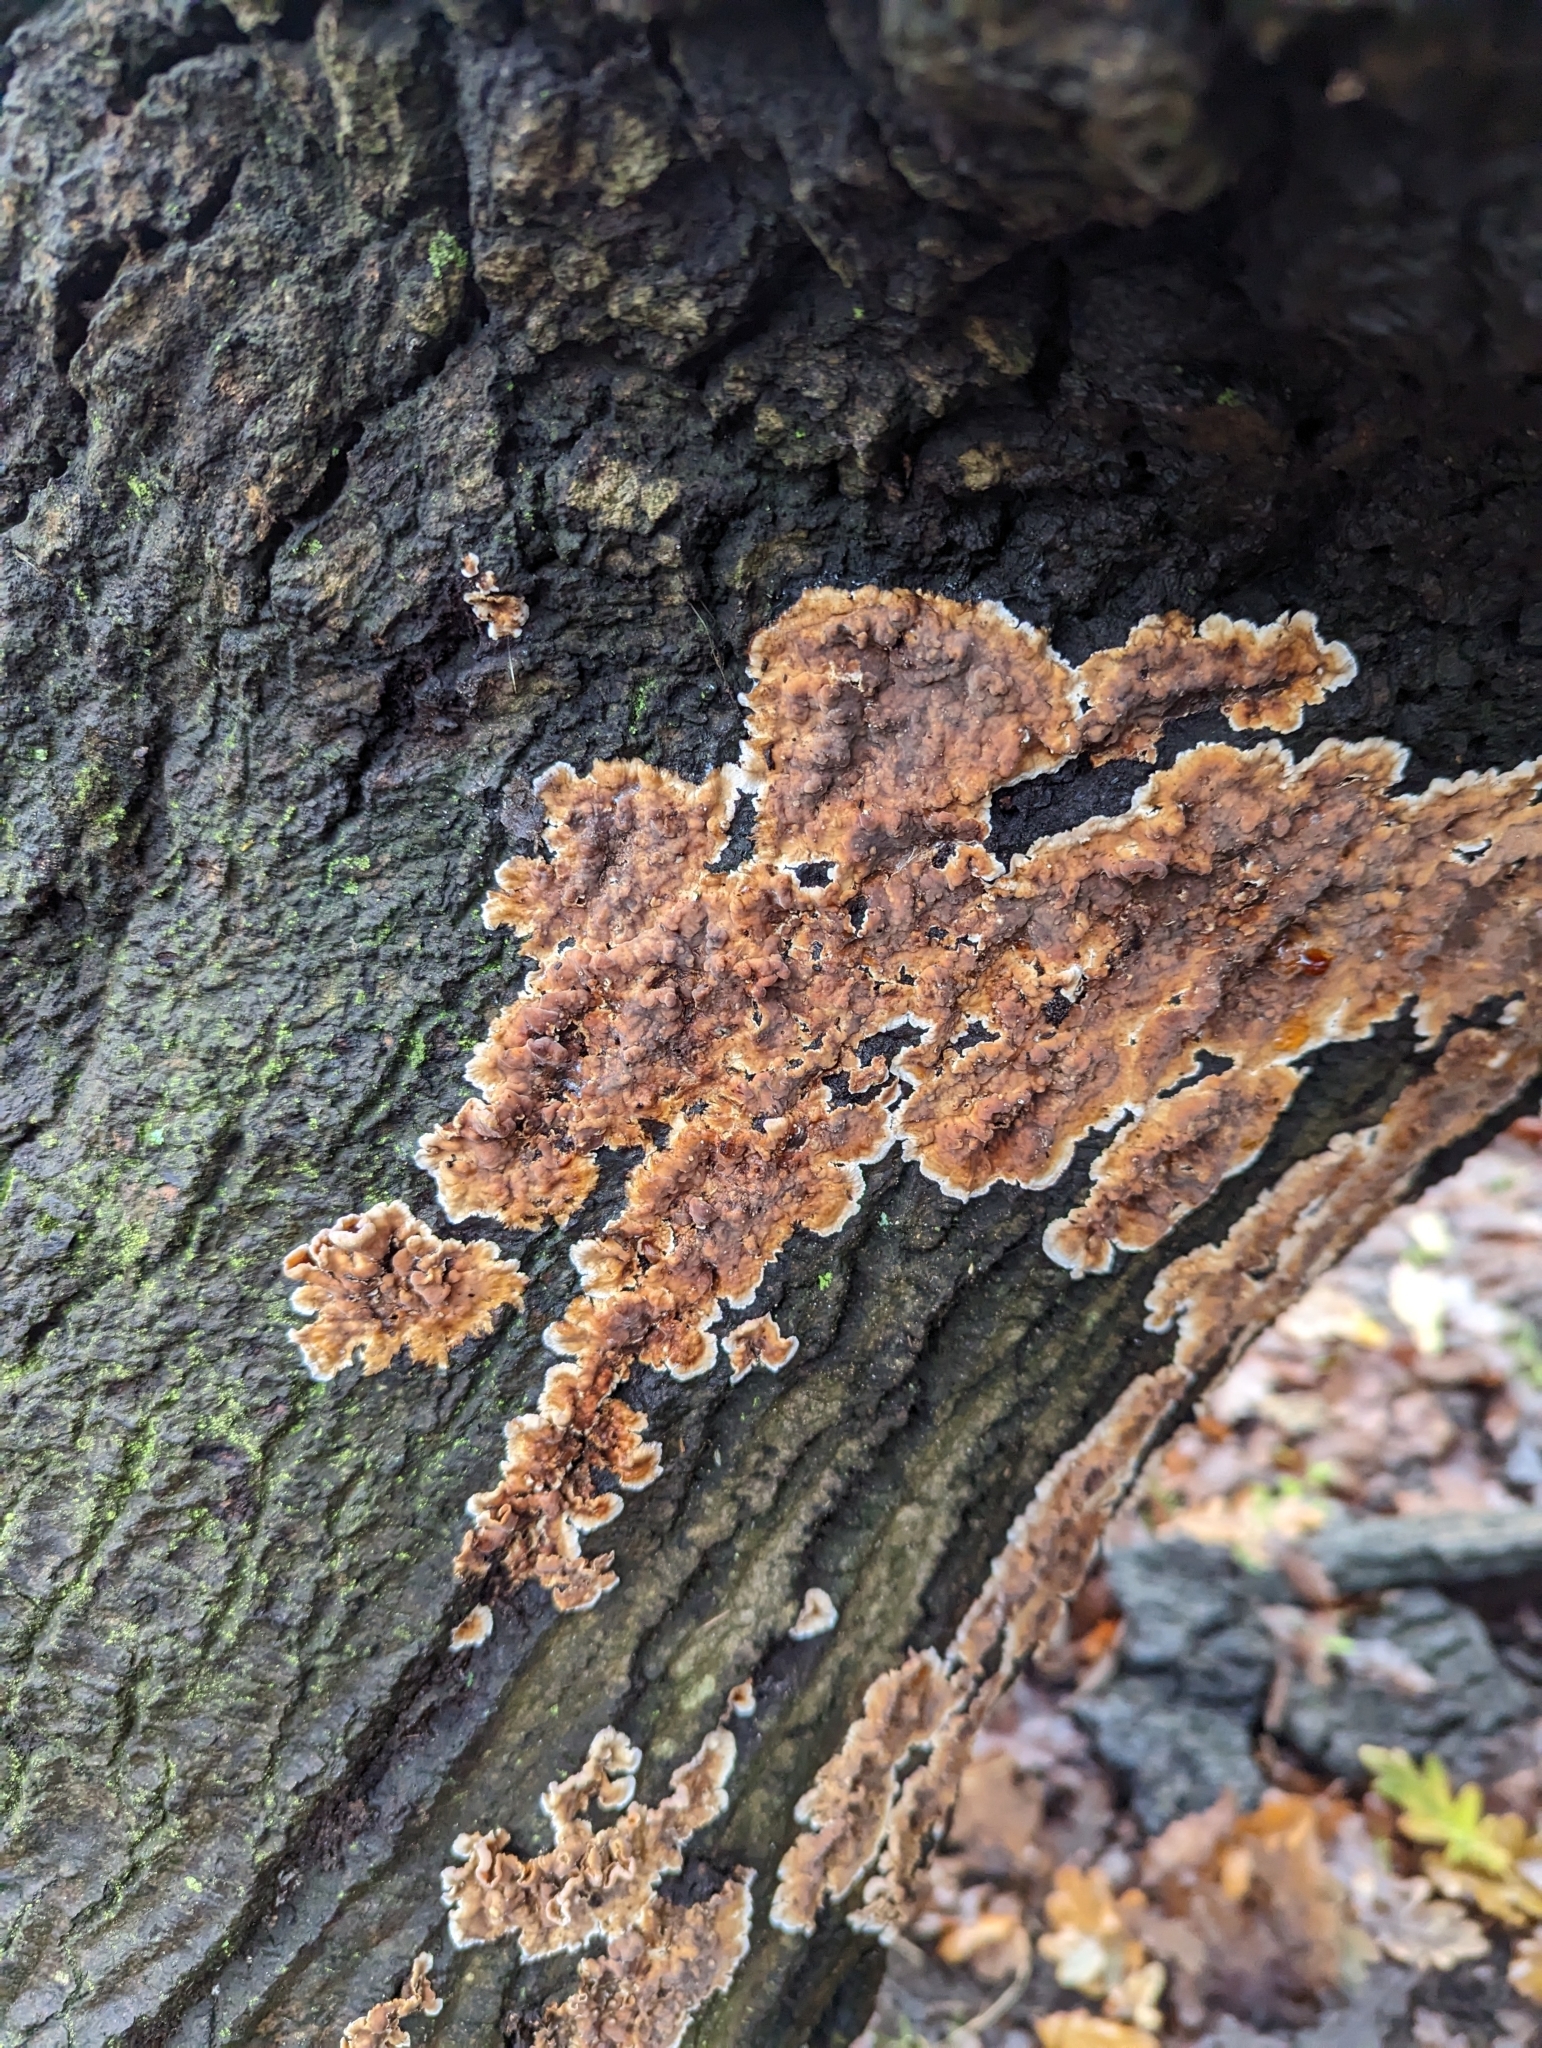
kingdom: Fungi
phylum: Basidiomycota
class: Agaricomycetes
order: Russulales
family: Stereaceae
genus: Stereum
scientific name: Stereum gausapatum
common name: Bleeding oak crust
